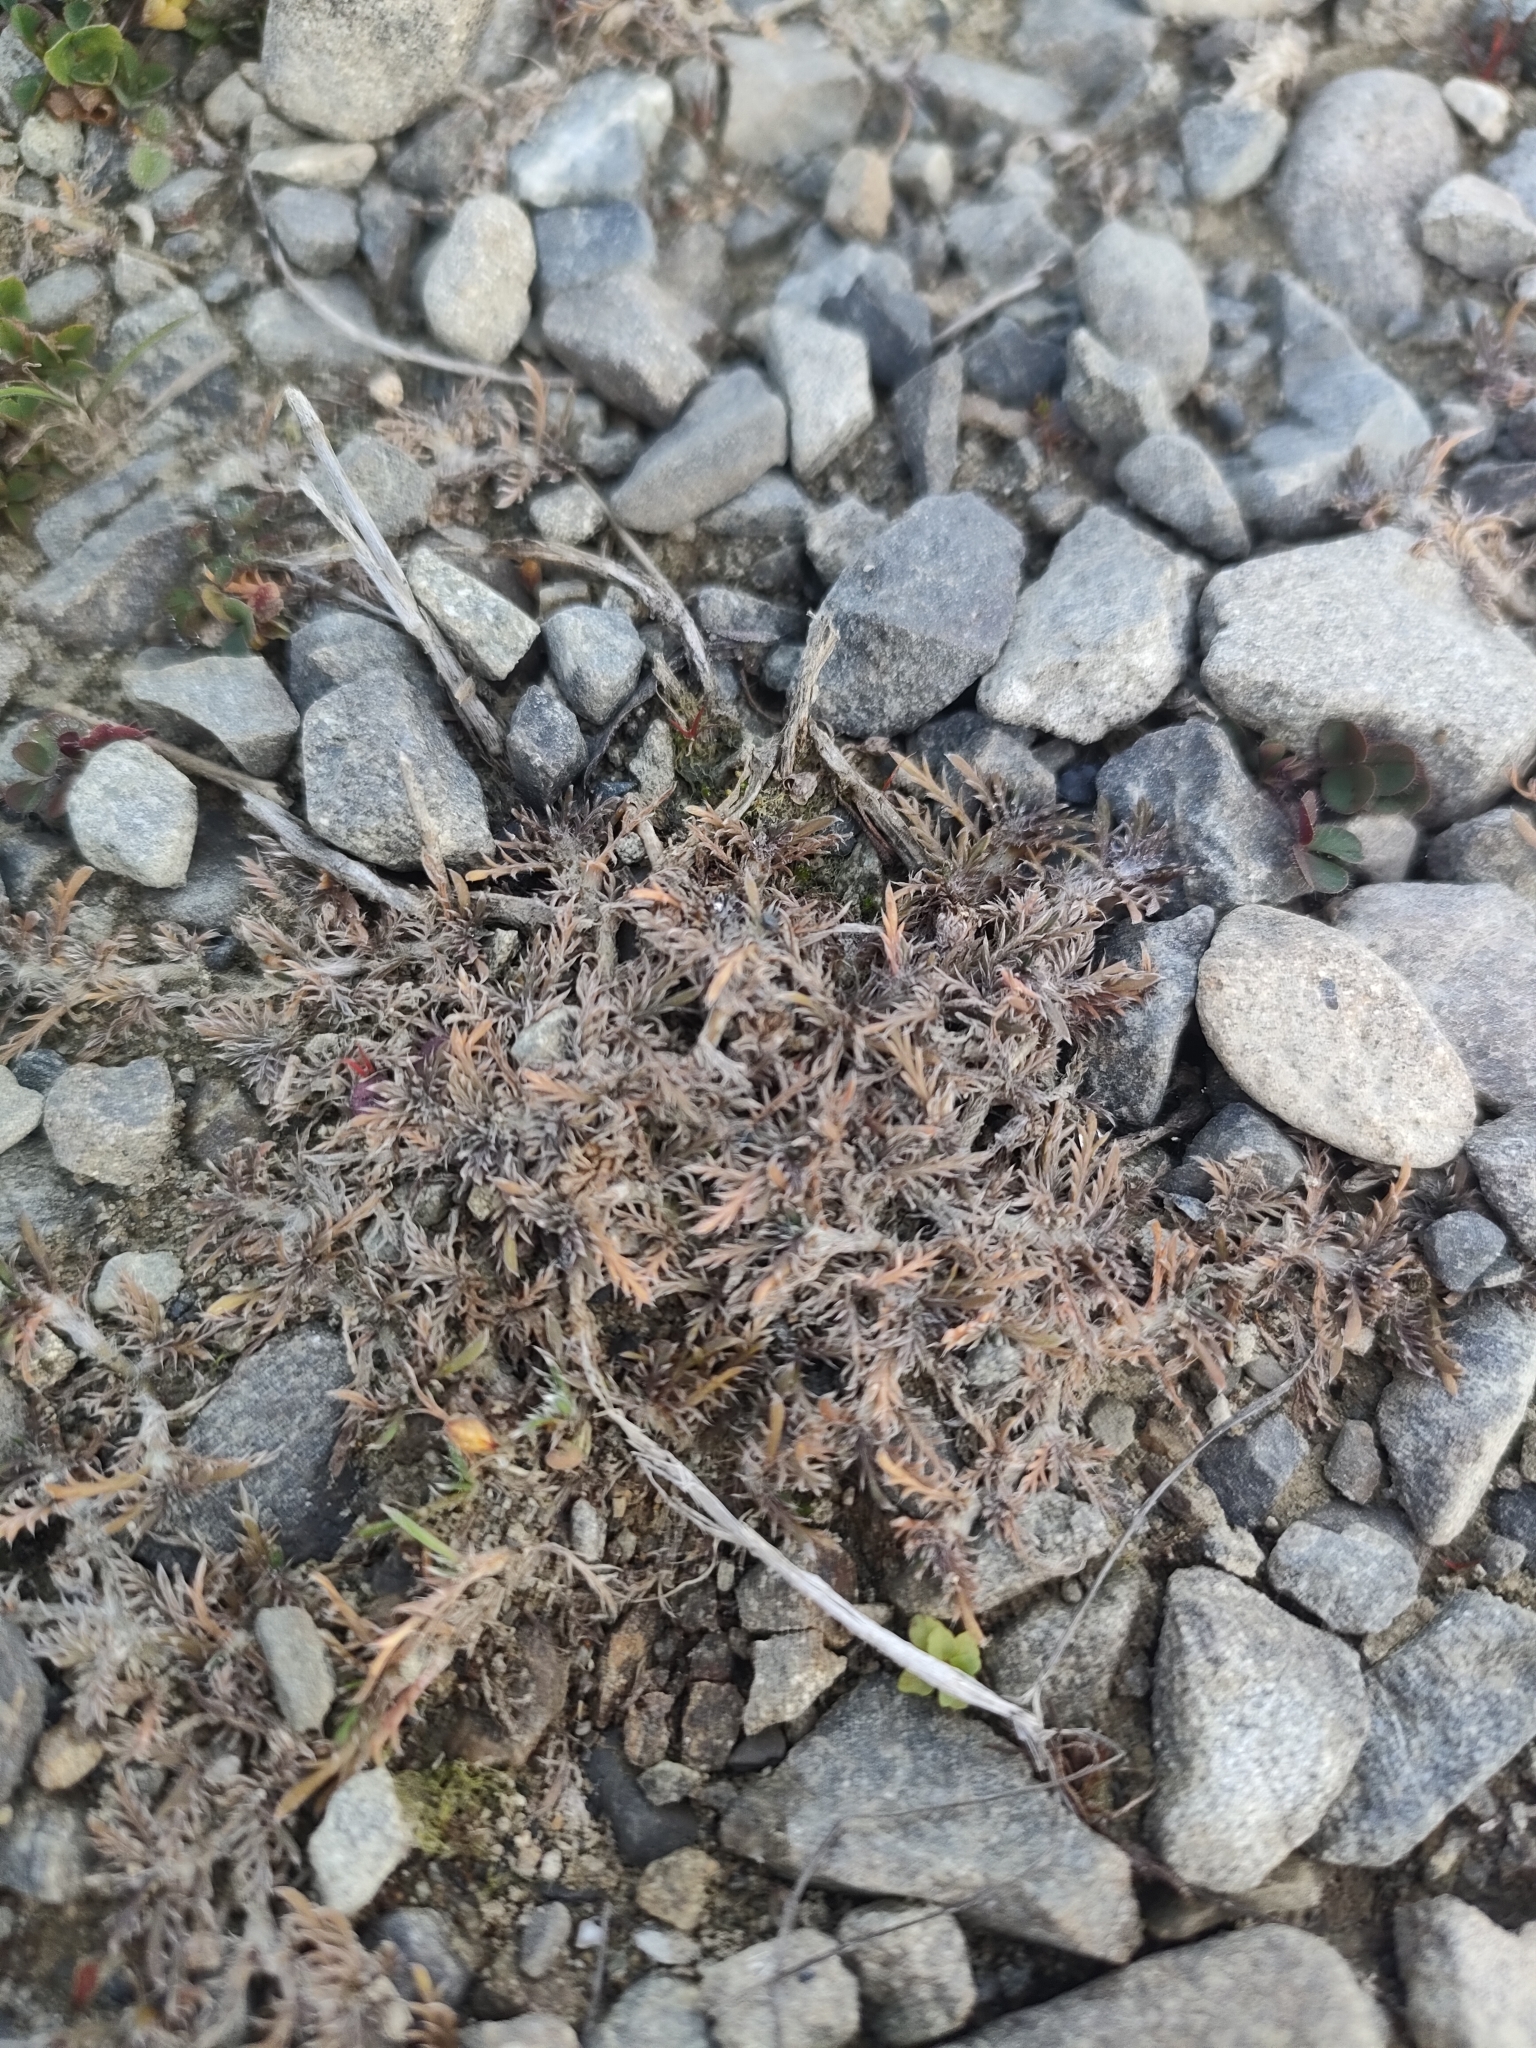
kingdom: Plantae
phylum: Tracheophyta
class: Magnoliopsida
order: Asterales
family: Asteraceae
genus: Leptinella
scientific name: Leptinella maniototo
